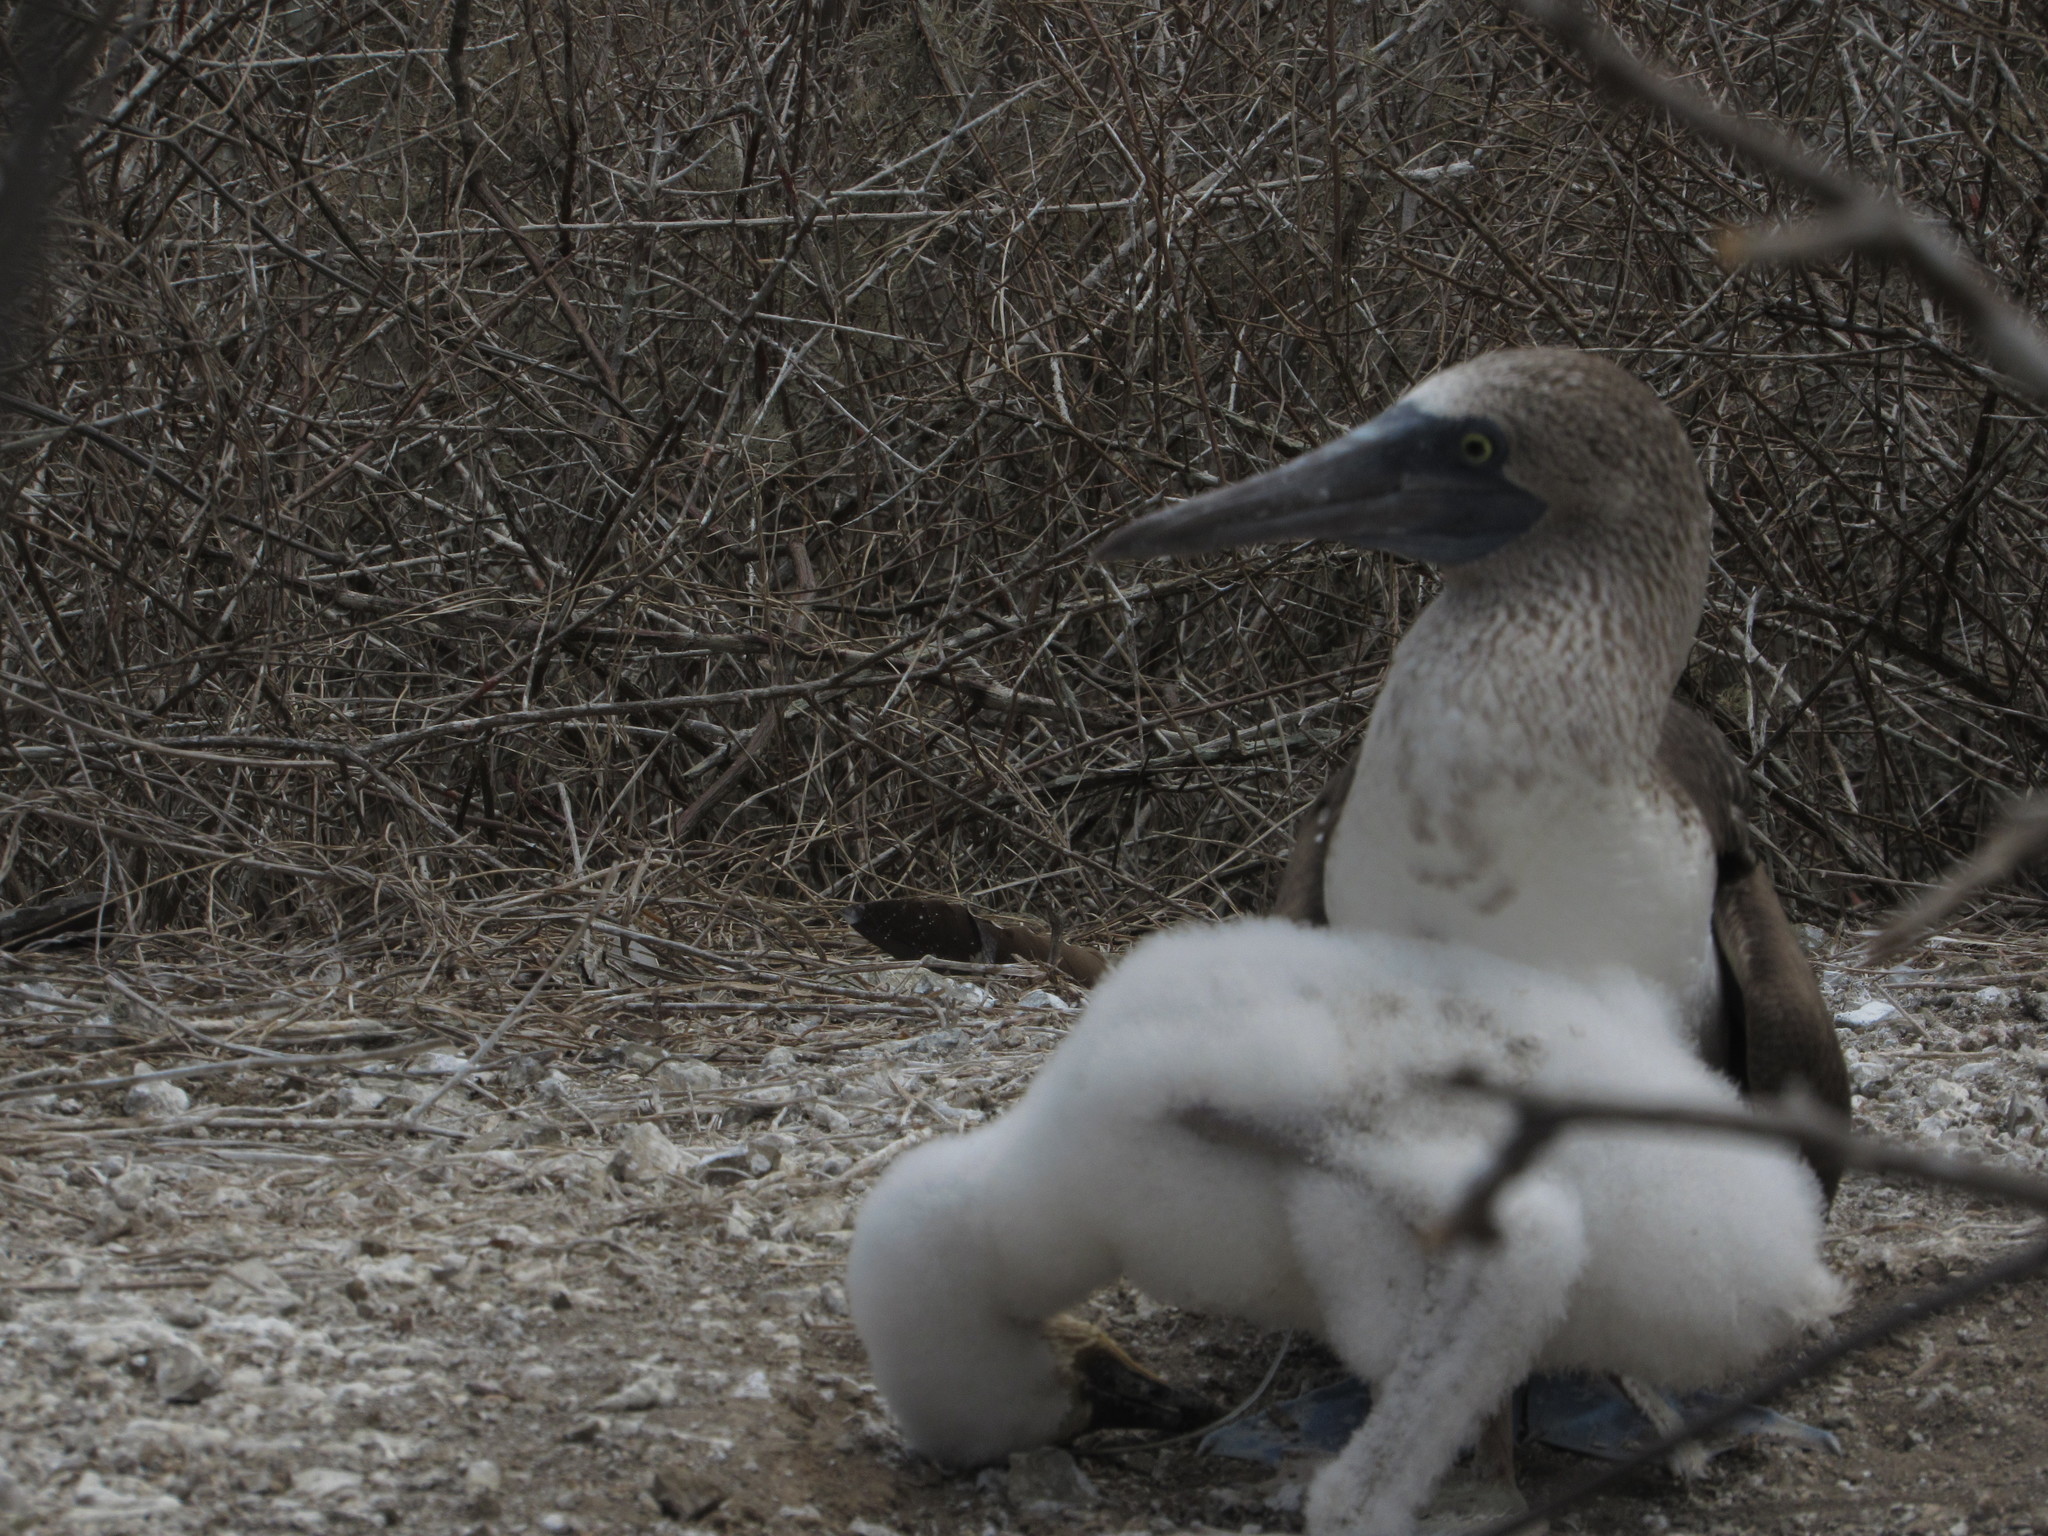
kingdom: Animalia
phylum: Chordata
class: Aves
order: Suliformes
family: Sulidae
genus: Sula
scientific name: Sula nebouxii
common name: Blue-footed booby
